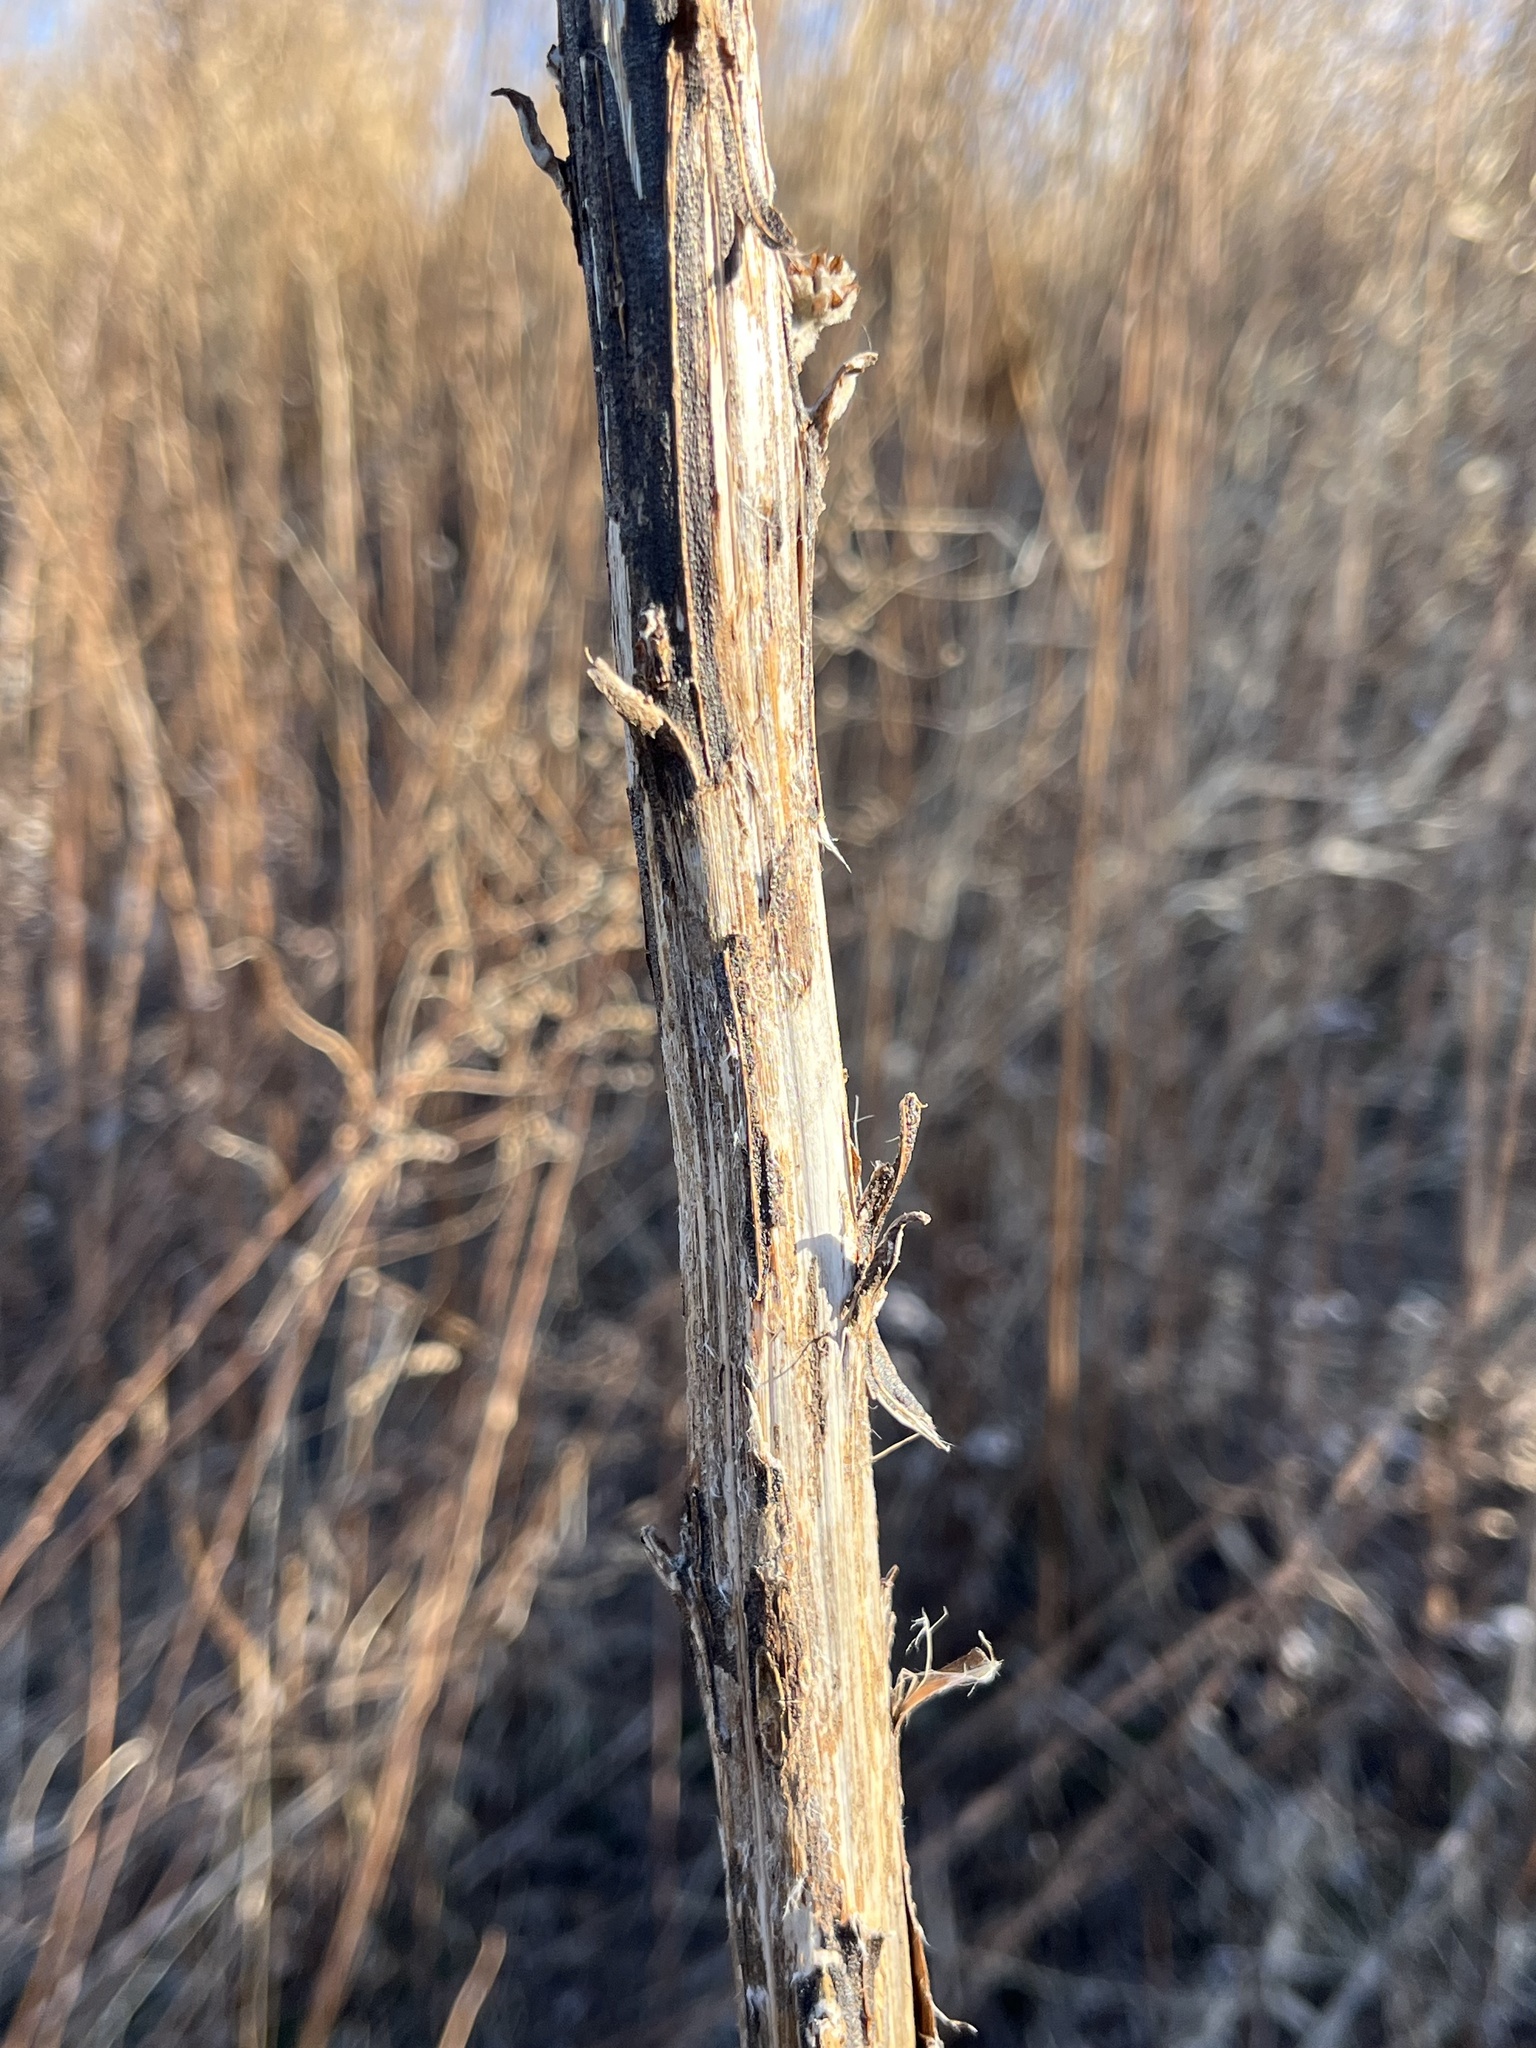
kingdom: Plantae
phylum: Tracheophyta
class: Magnoliopsida
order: Lamiales
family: Scrophulariaceae
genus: Verbascum
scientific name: Verbascum thapsus
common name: Common mullein
